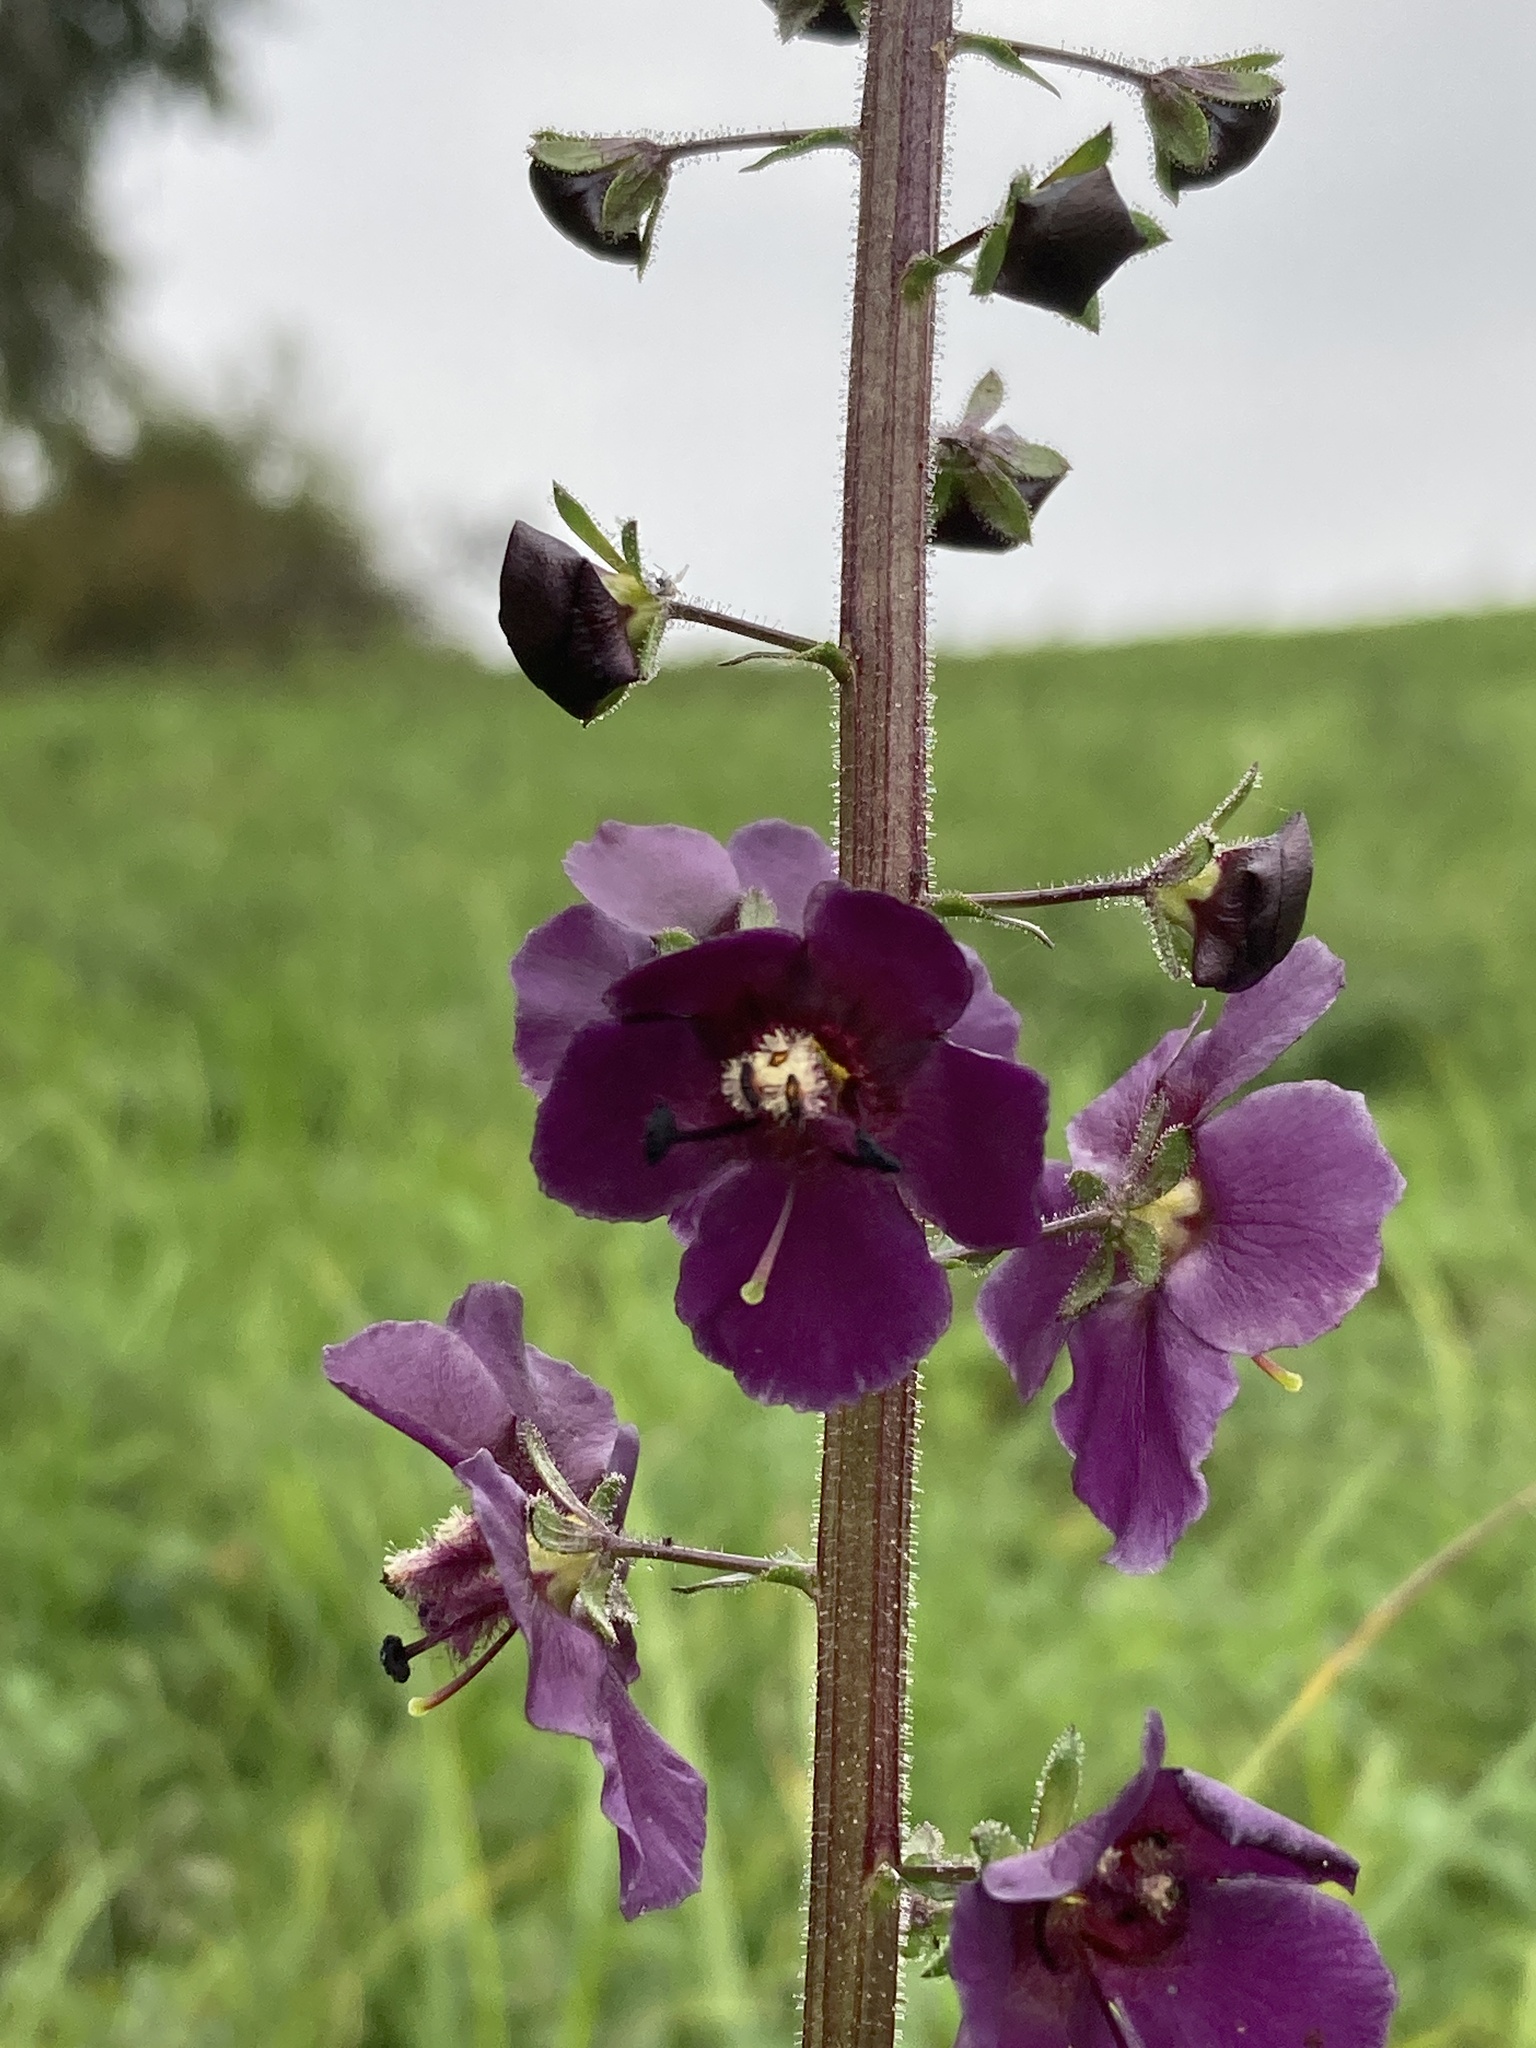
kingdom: Plantae
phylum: Tracheophyta
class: Magnoliopsida
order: Lamiales
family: Scrophulariaceae
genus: Verbascum
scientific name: Verbascum phoeniceum
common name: Purple mullein
